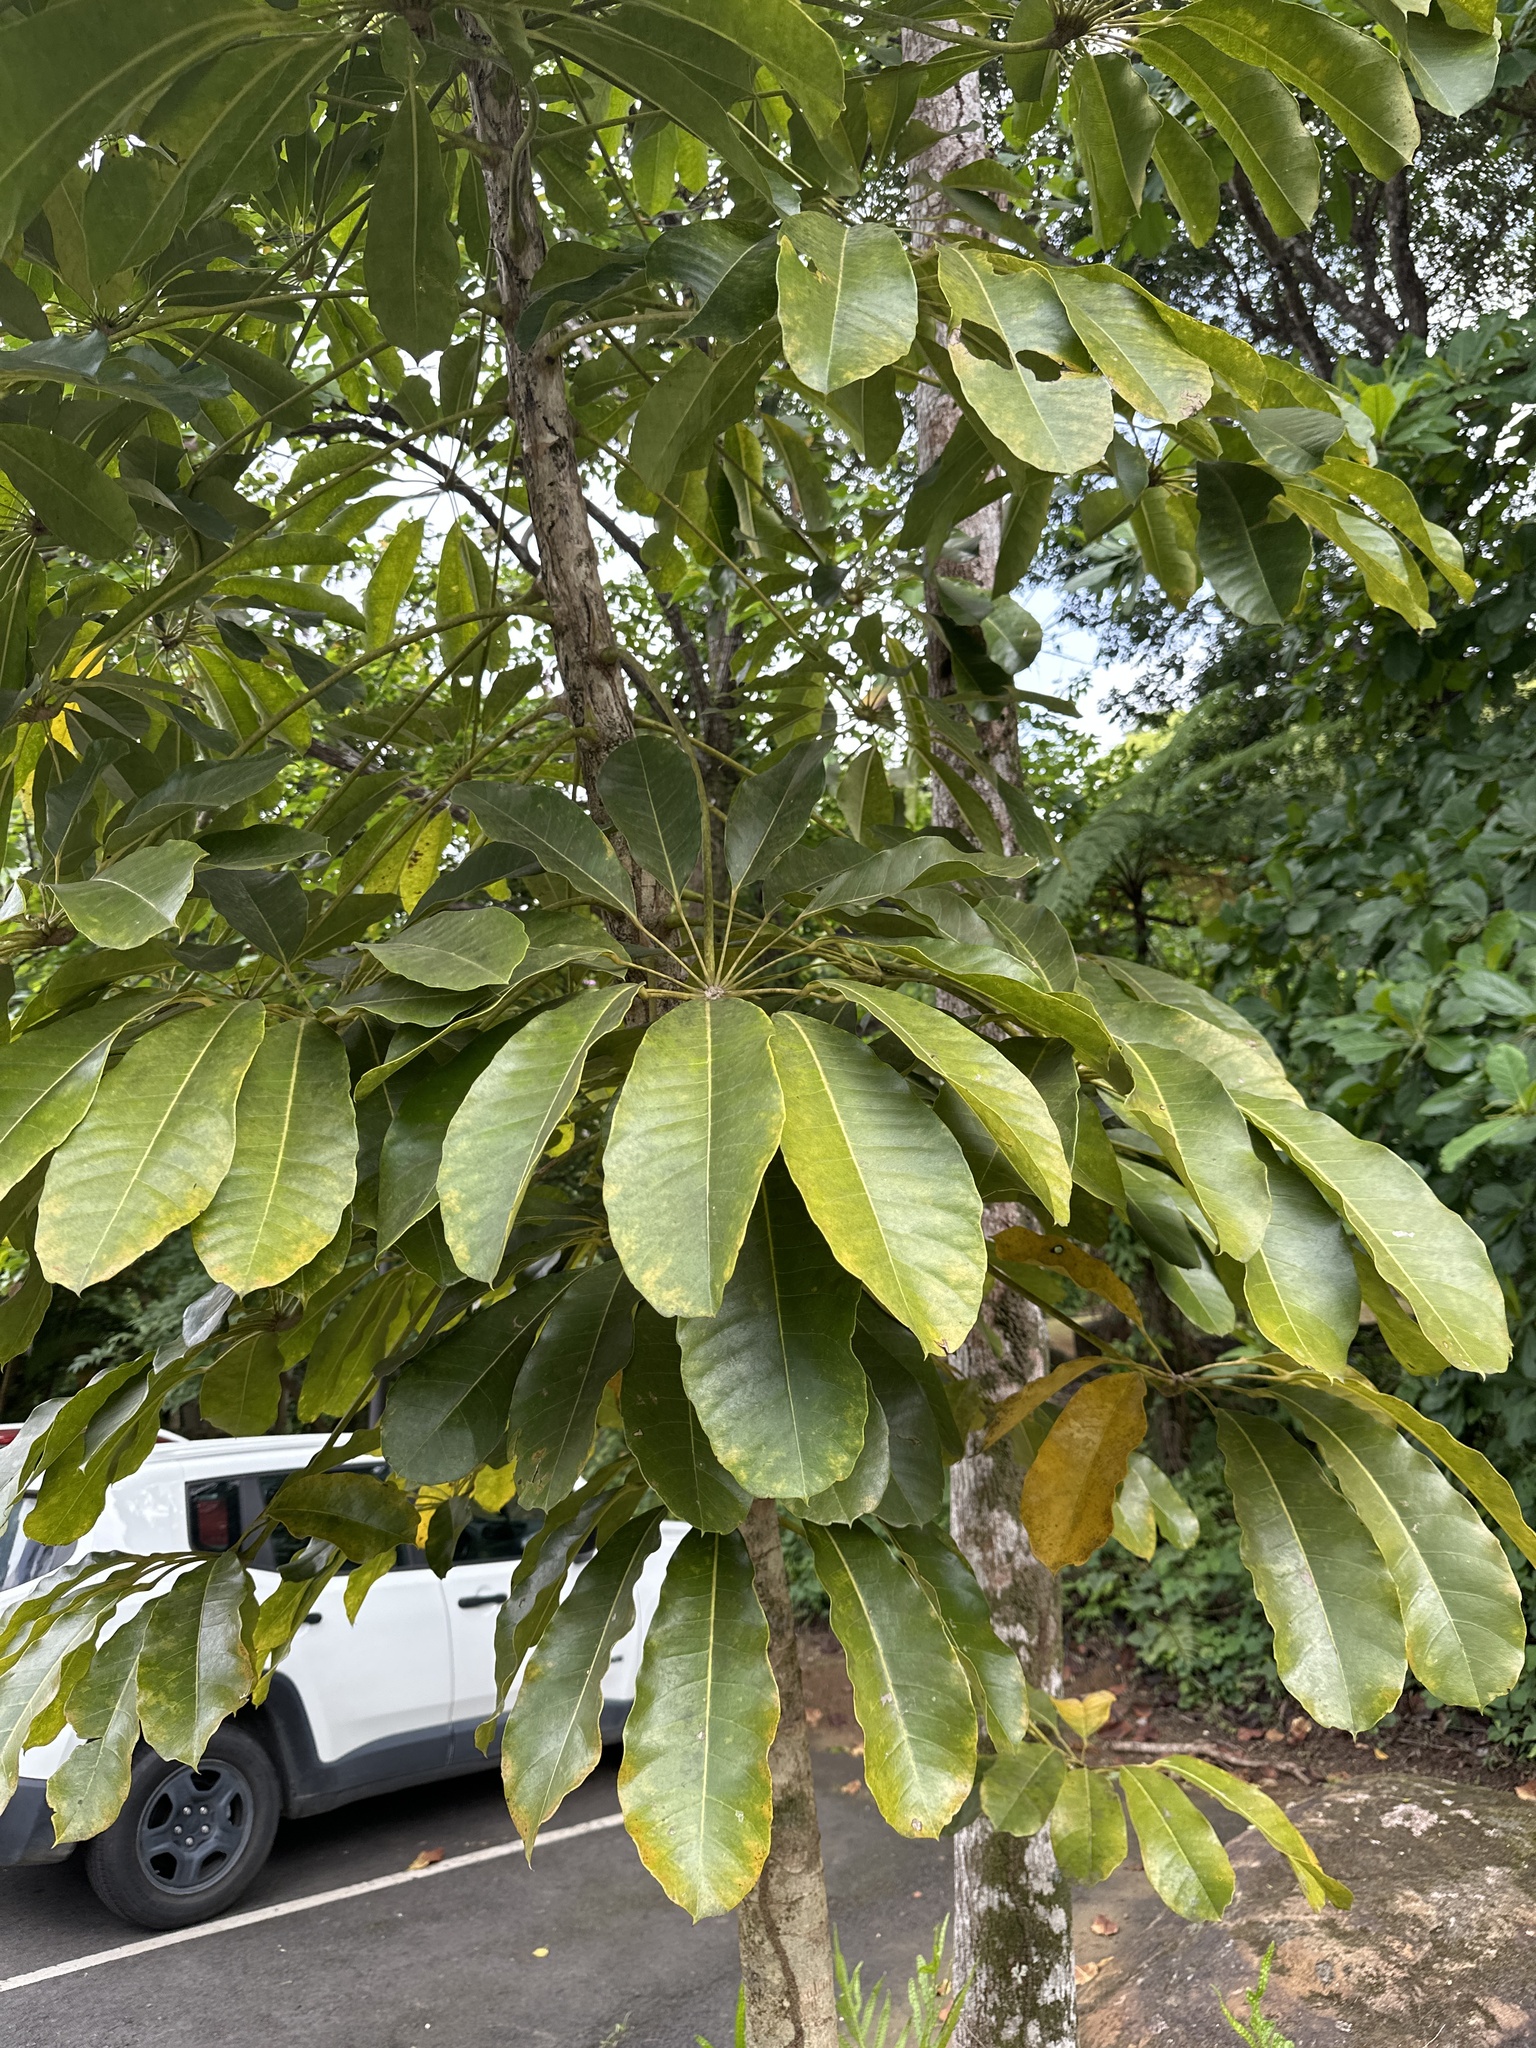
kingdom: Plantae
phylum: Tracheophyta
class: Magnoliopsida
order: Apiales
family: Araliaceae
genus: Heptapleurum
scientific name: Heptapleurum actinophyllum
